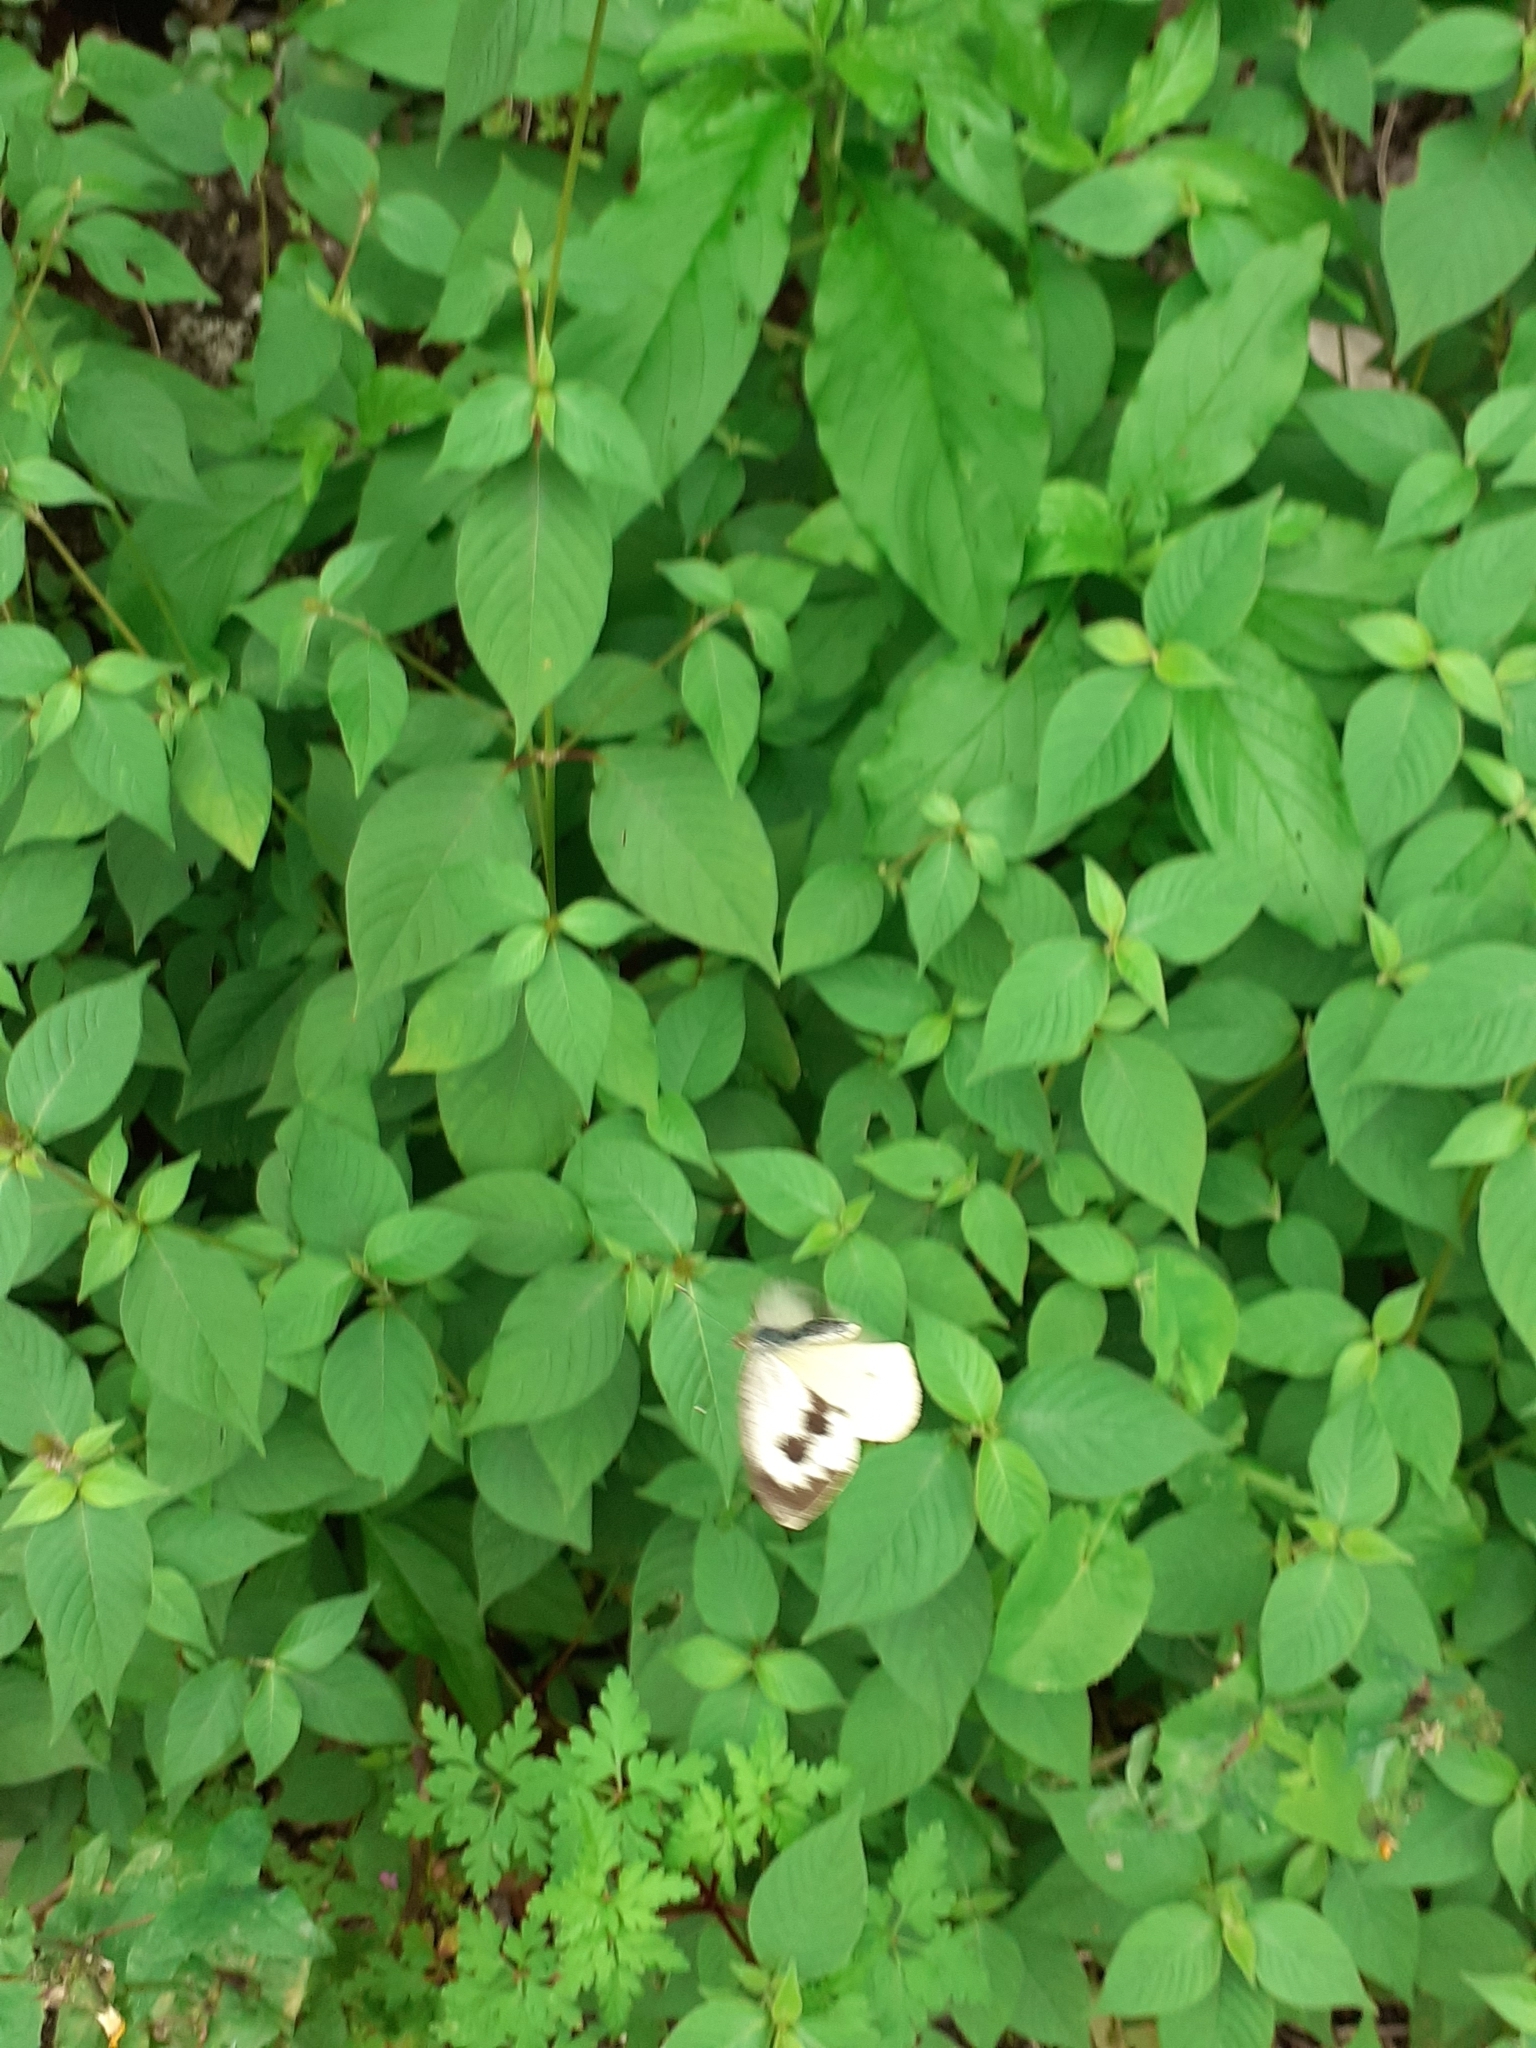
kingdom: Animalia
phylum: Arthropoda
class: Insecta
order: Lepidoptera
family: Pieridae
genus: Pieris
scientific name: Pieris cheiranthi
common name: Canary islands large white
